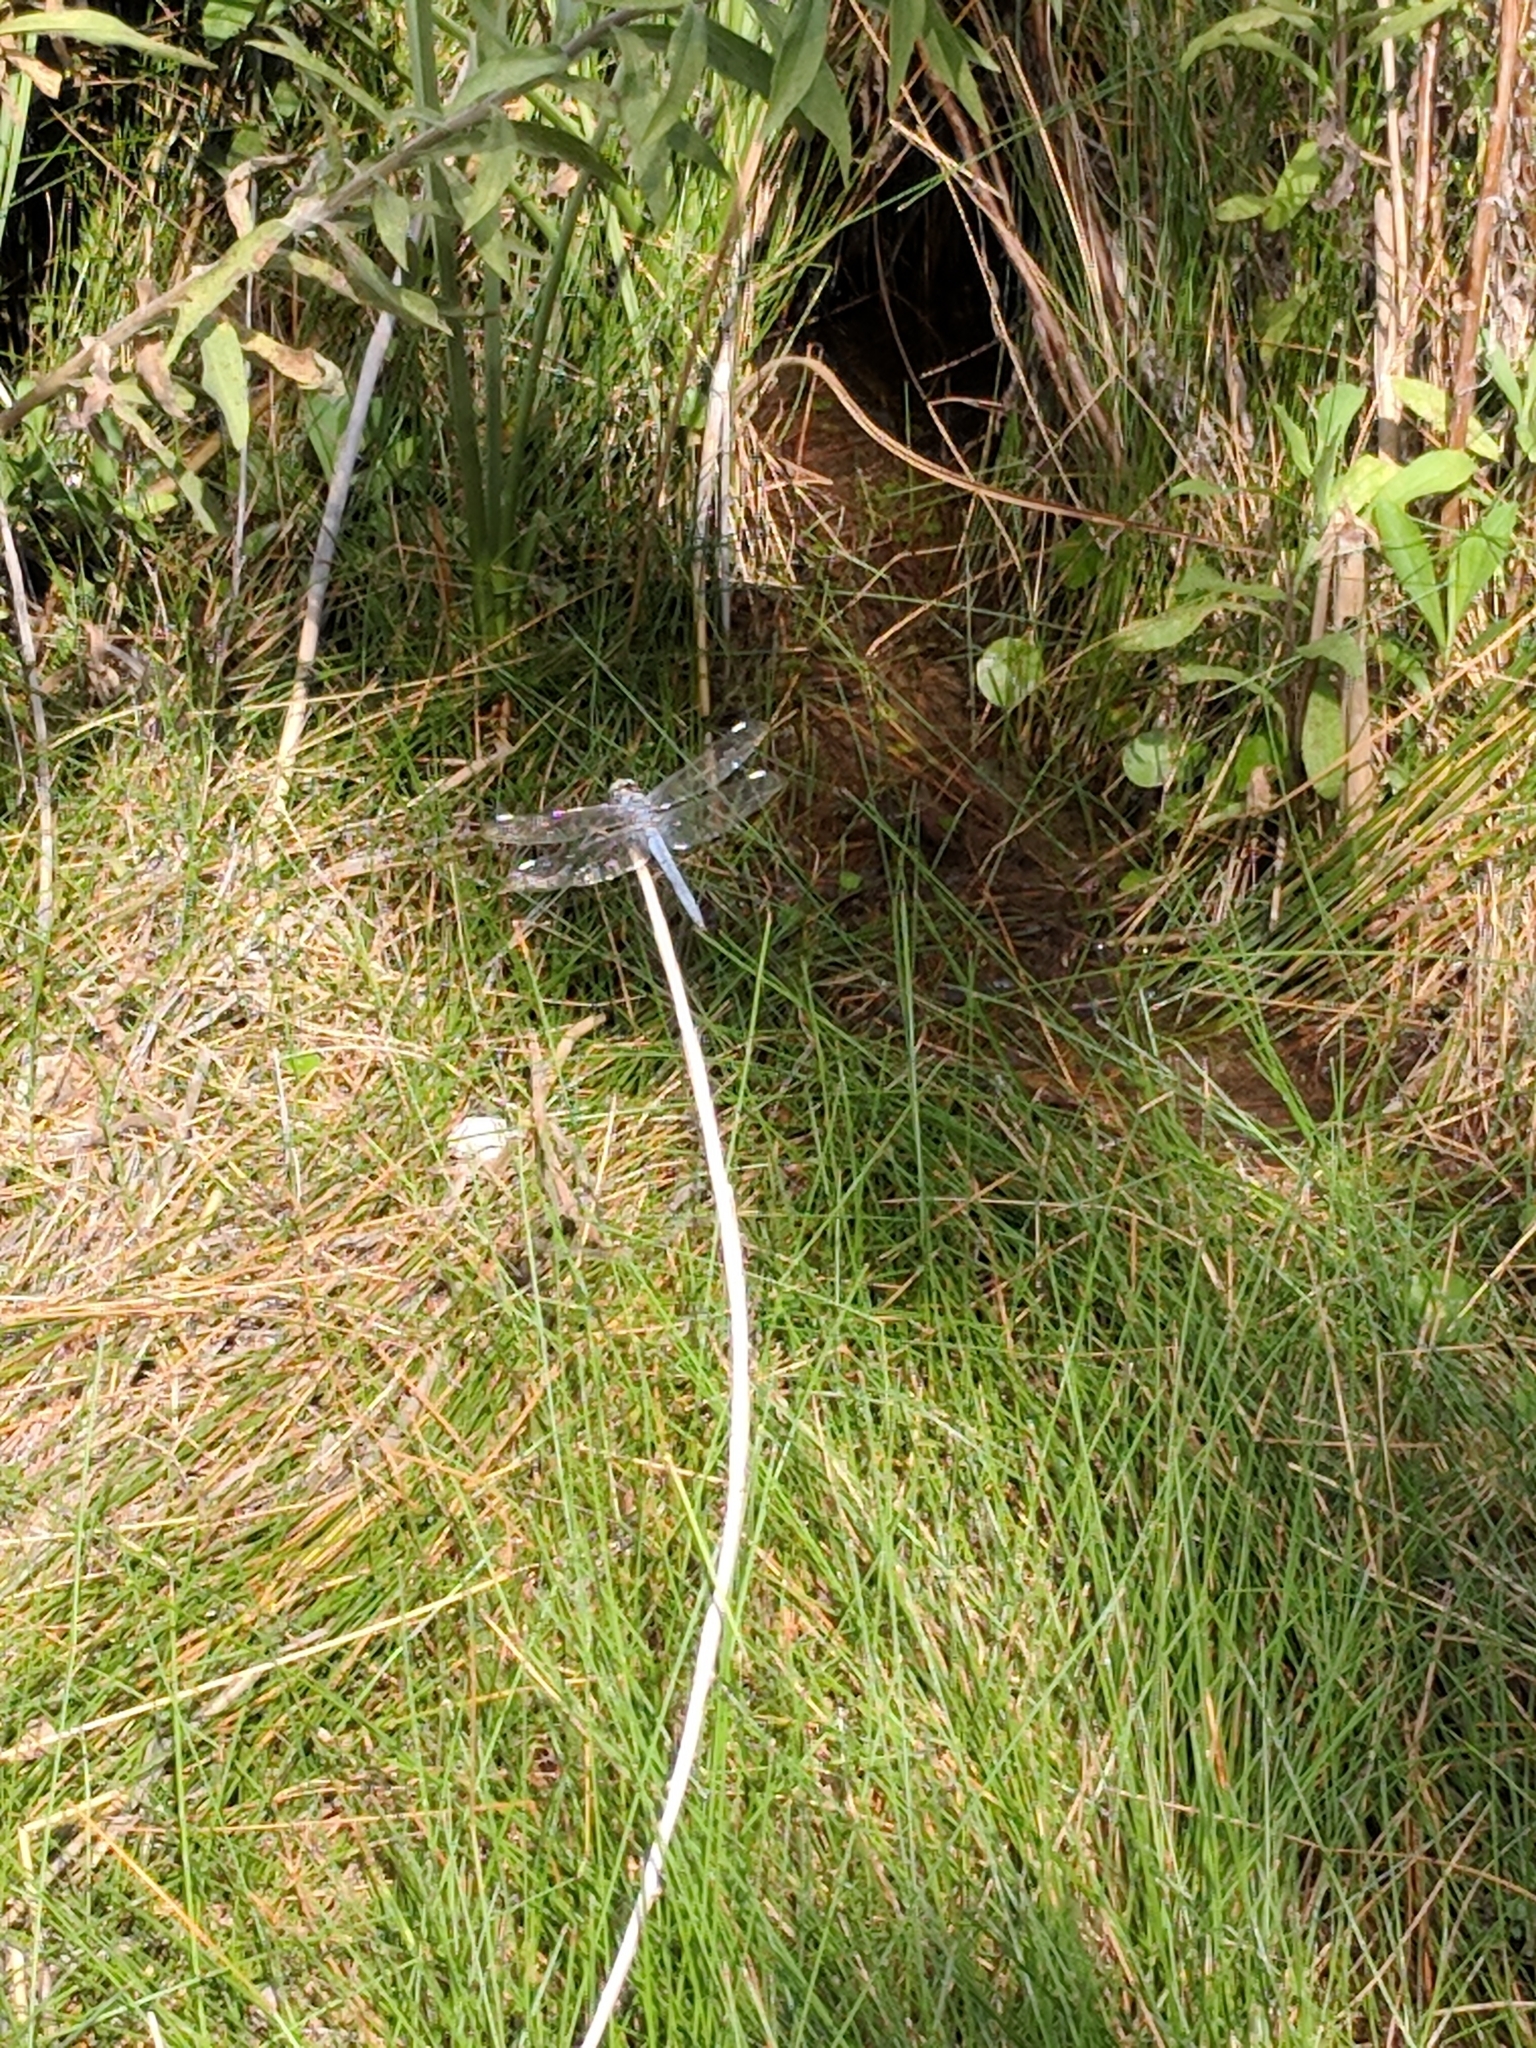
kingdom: Animalia
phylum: Arthropoda
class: Insecta
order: Odonata
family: Libellulidae
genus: Libellula
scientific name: Libellula comanche
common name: Comanche skimmer
